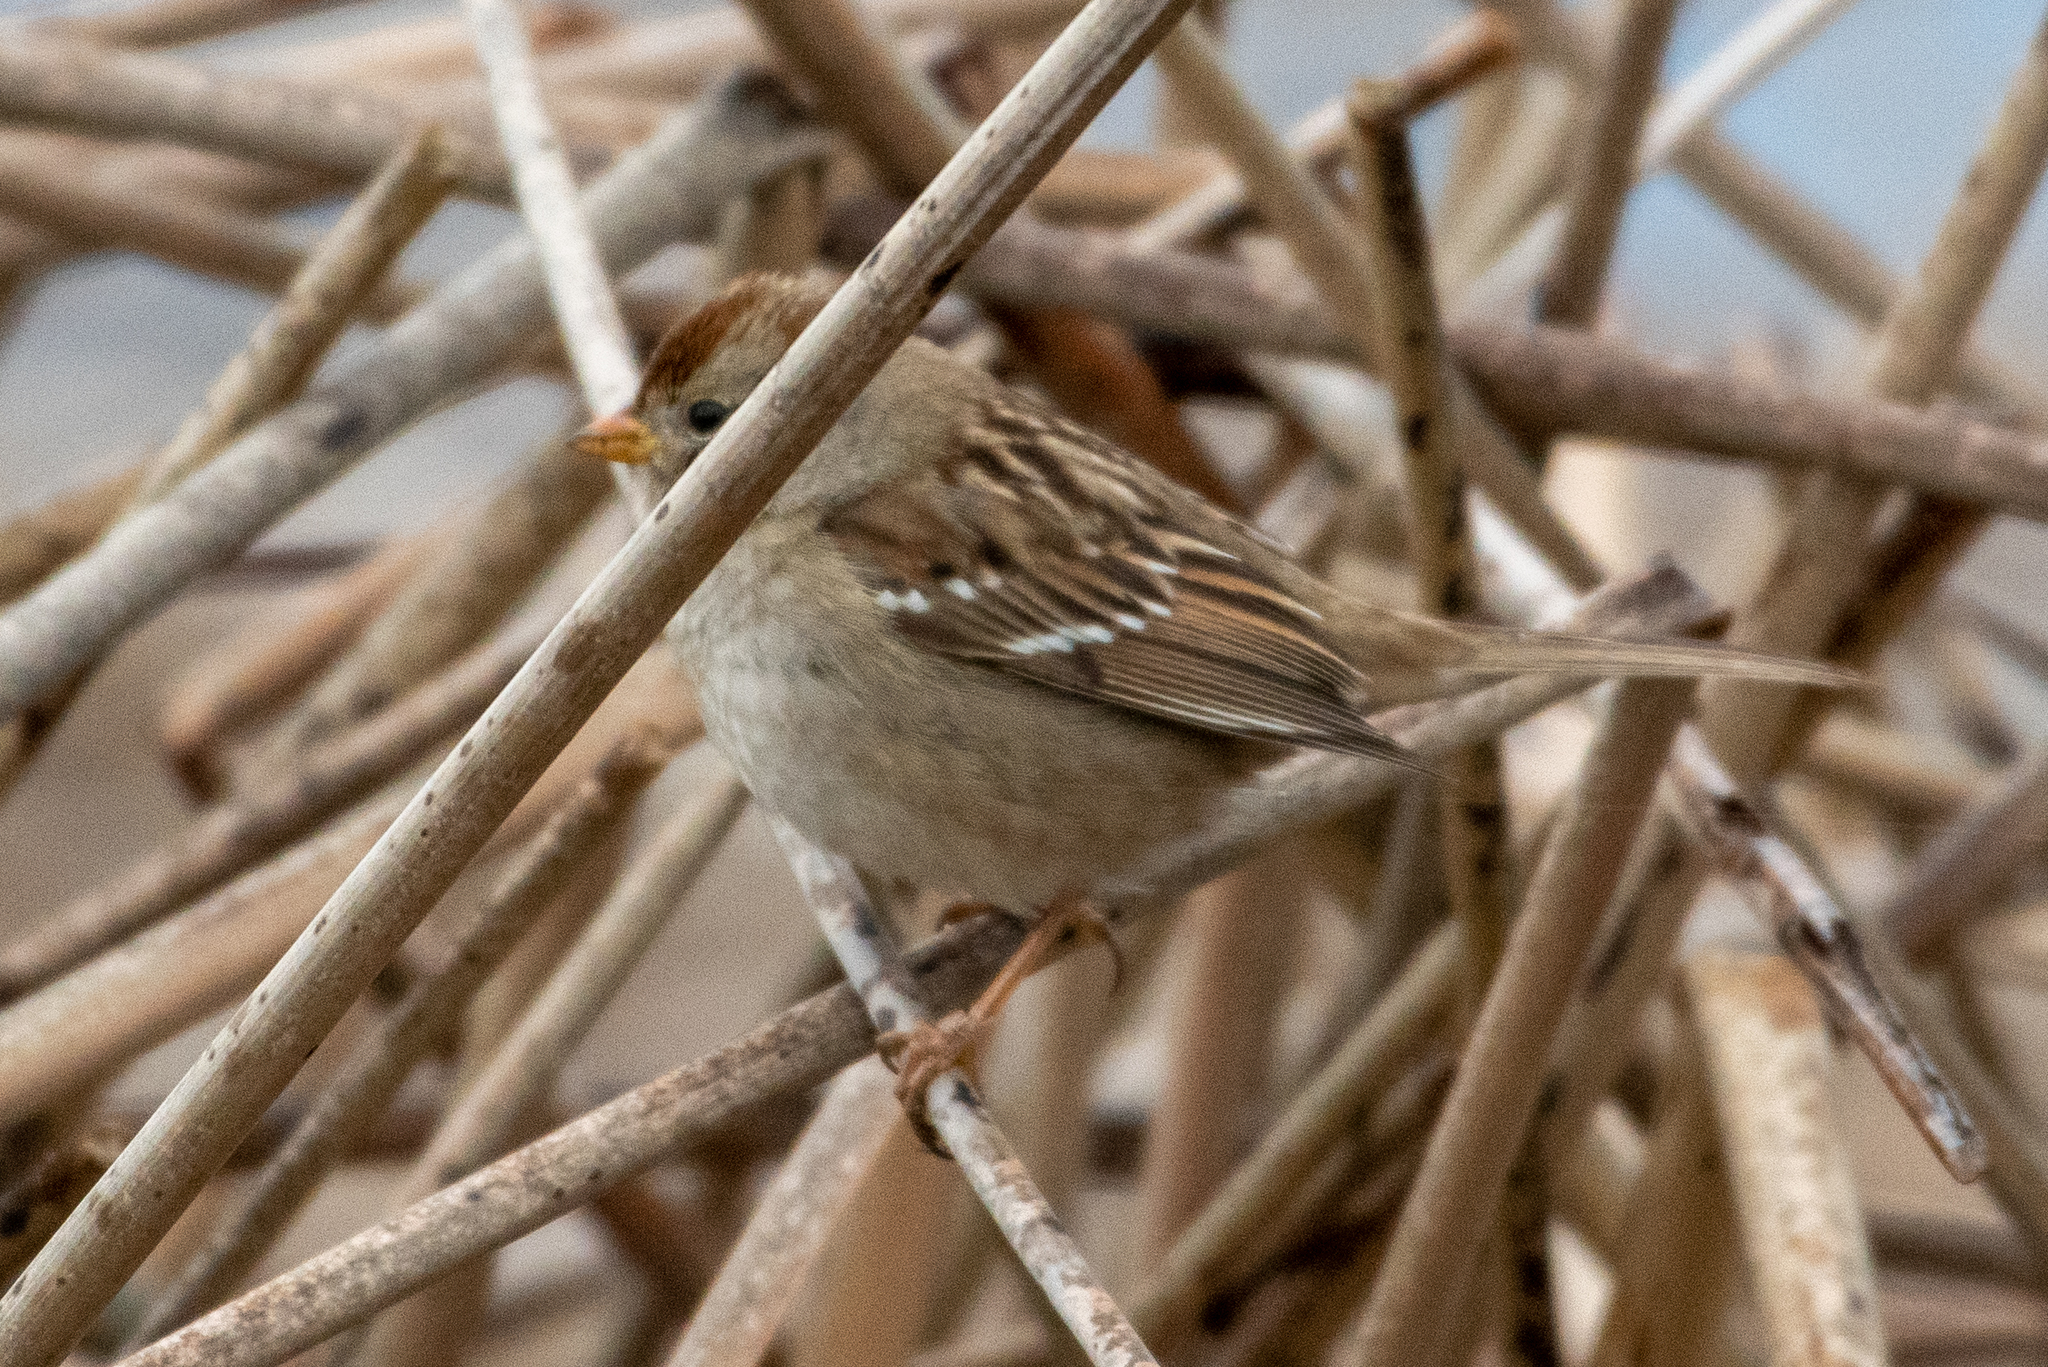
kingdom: Animalia
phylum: Chordata
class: Aves
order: Passeriformes
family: Passerellidae
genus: Zonotrichia
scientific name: Zonotrichia leucophrys
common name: White-crowned sparrow
